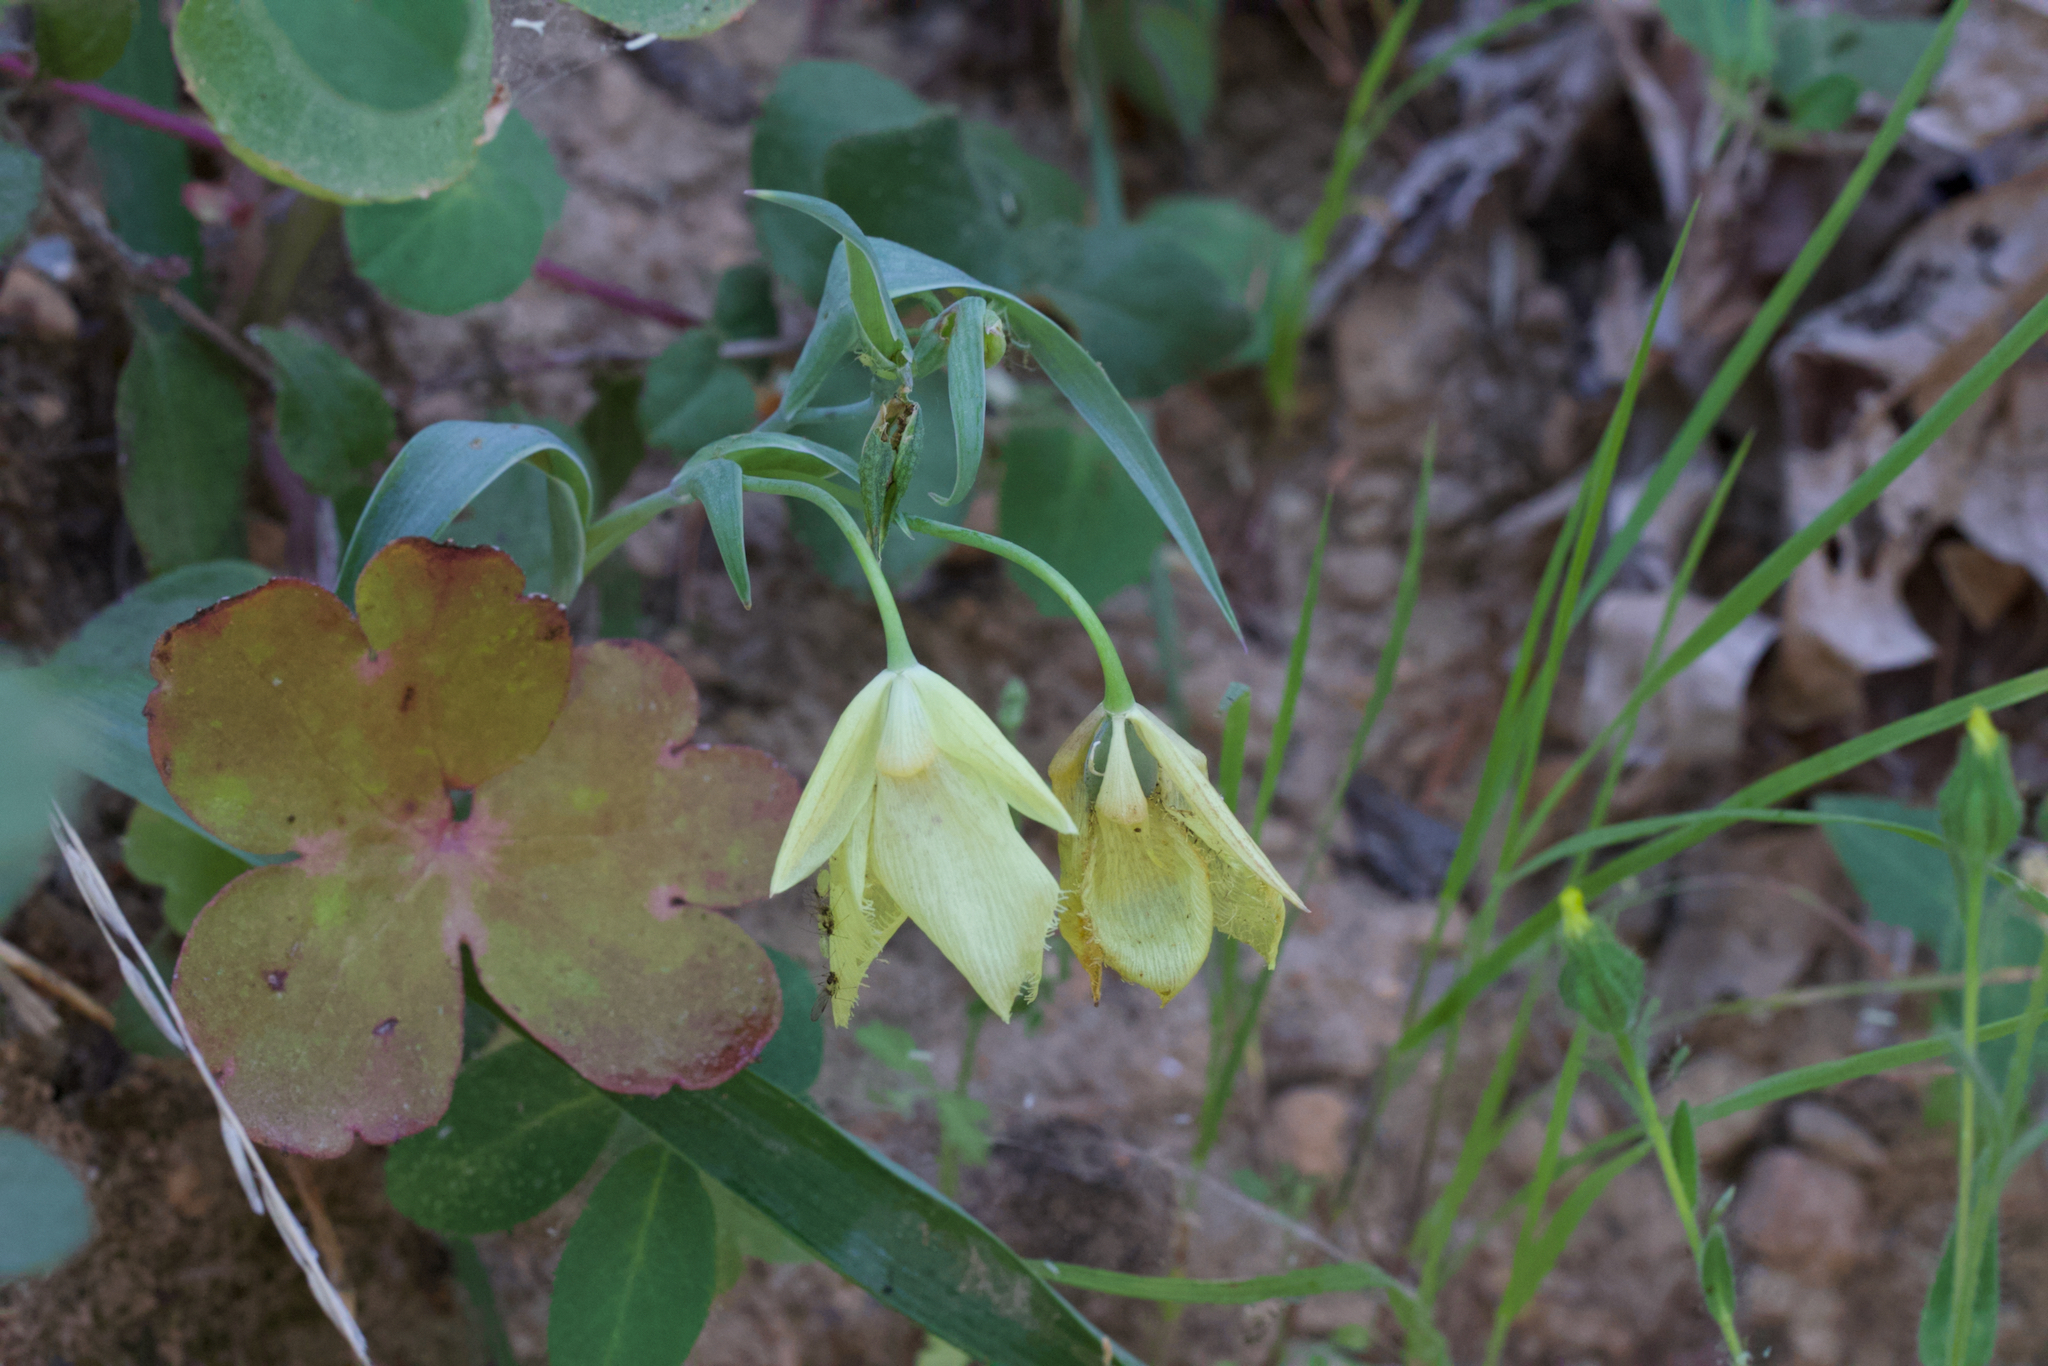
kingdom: Plantae
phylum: Tracheophyta
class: Liliopsida
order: Liliales
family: Liliaceae
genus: Calochortus
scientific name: Calochortus
